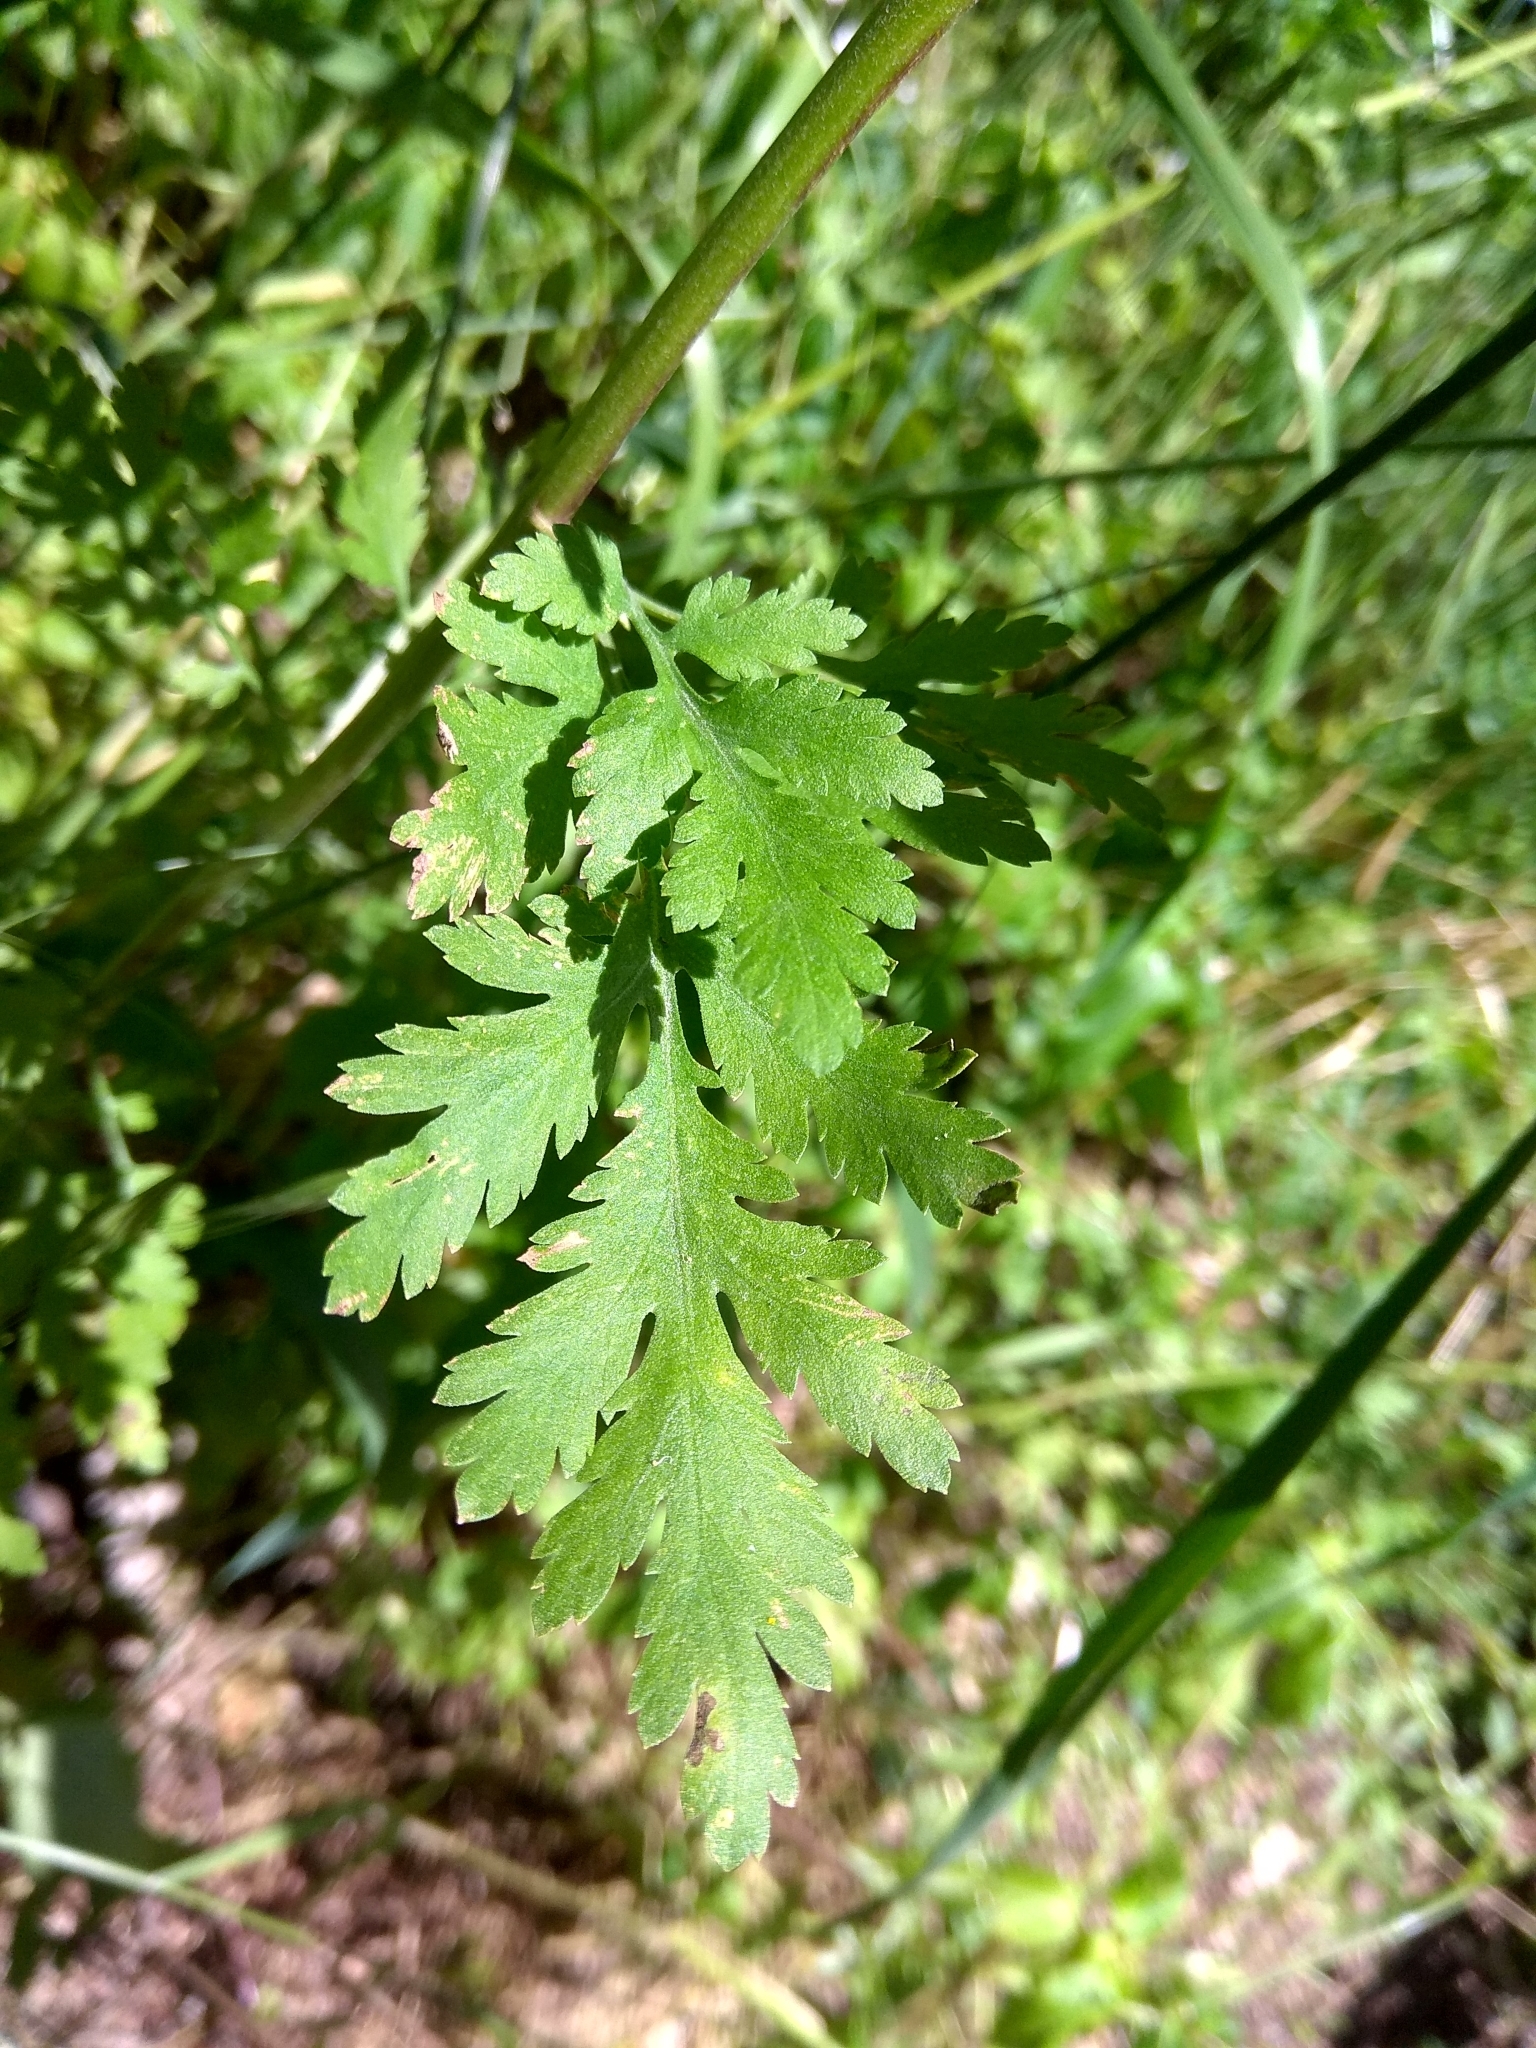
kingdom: Plantae
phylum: Tracheophyta
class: Magnoliopsida
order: Asterales
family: Asteraceae
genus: Tanacetum
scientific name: Tanacetum parthenium
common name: Feverfew
